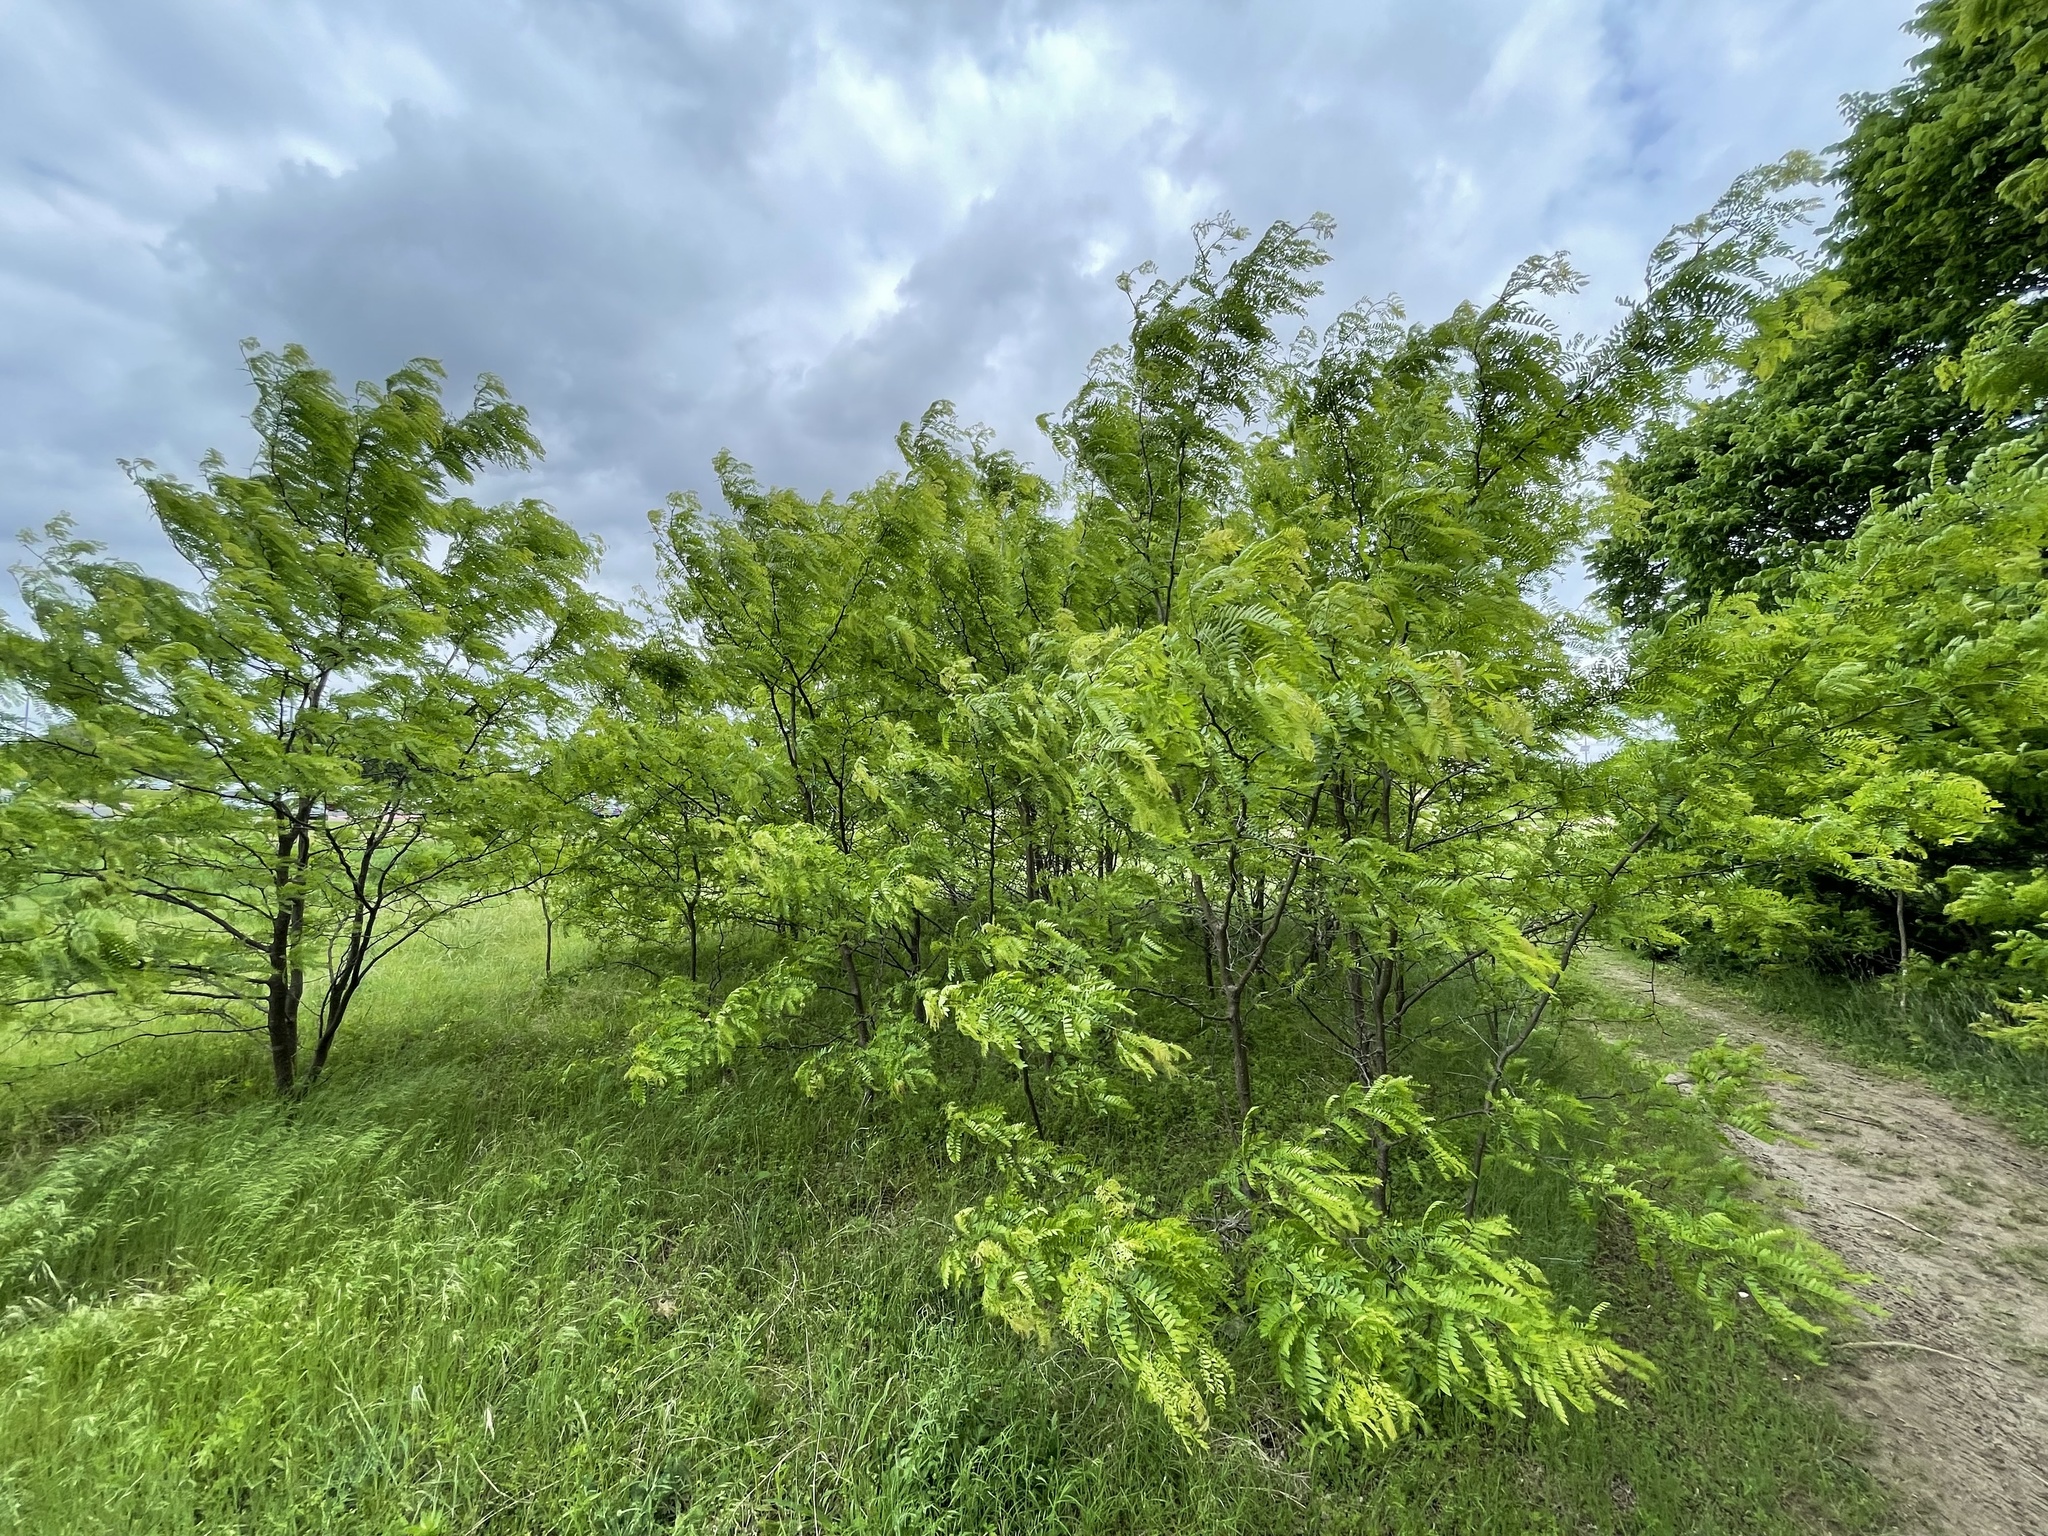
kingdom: Plantae
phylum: Tracheophyta
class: Magnoliopsida
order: Fabales
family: Fabaceae
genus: Gleditsia
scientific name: Gleditsia triacanthos
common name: Common honeylocust
